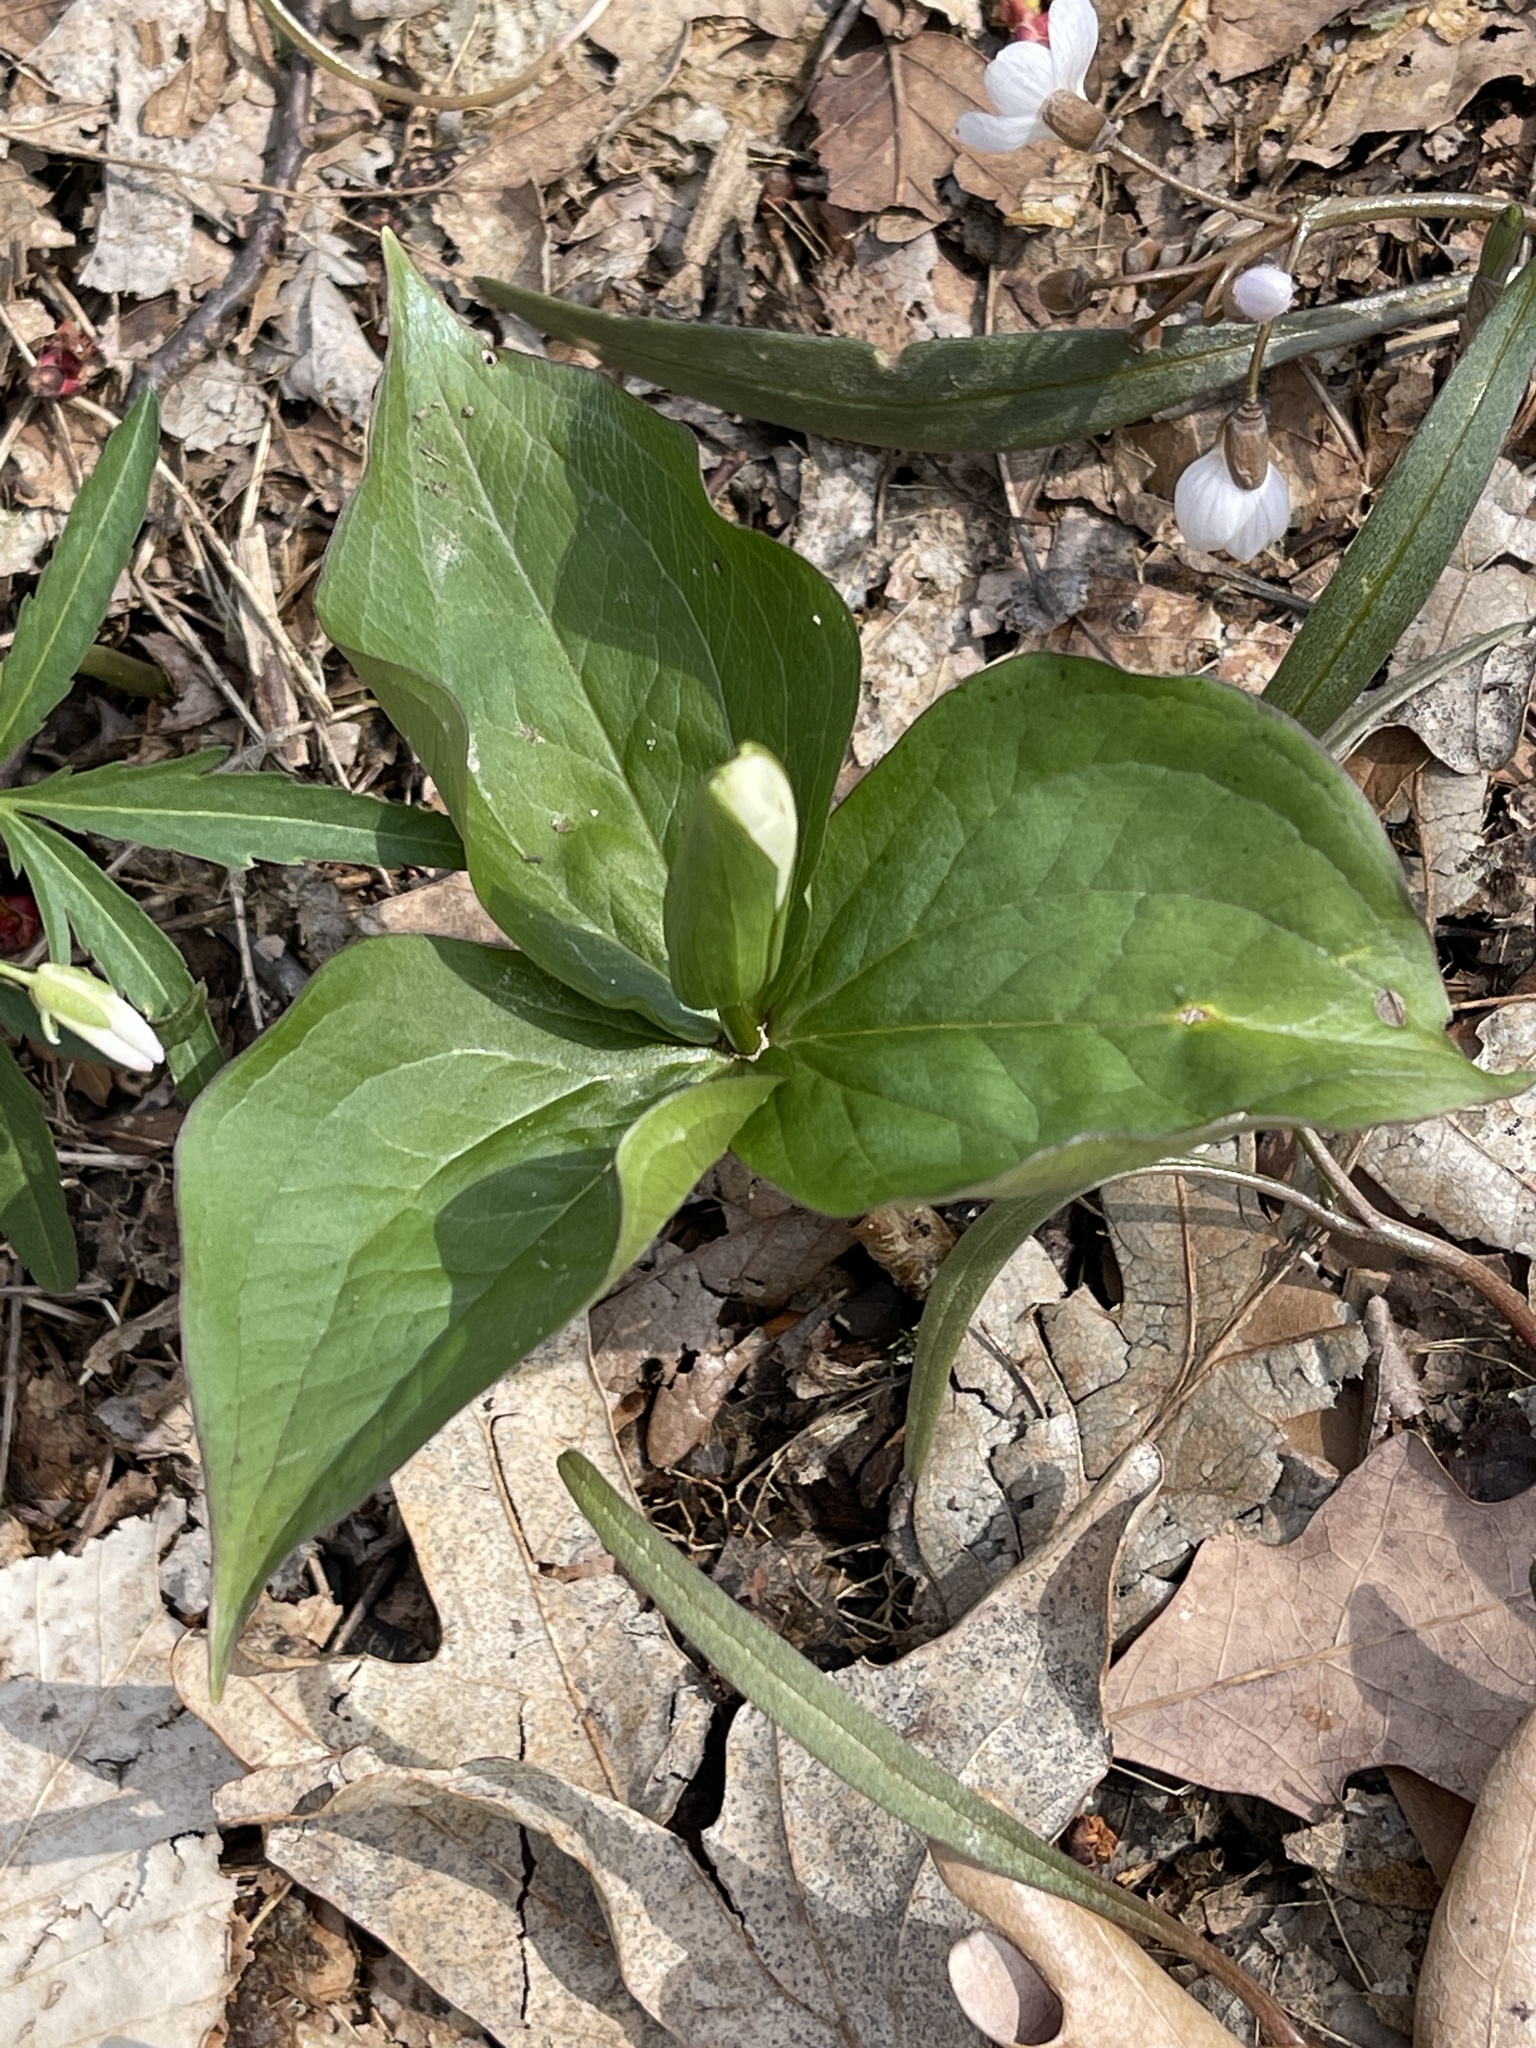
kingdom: Plantae
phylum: Tracheophyta
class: Liliopsida
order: Liliales
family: Melanthiaceae
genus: Trillium
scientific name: Trillium grandiflorum
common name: Great white trillium
